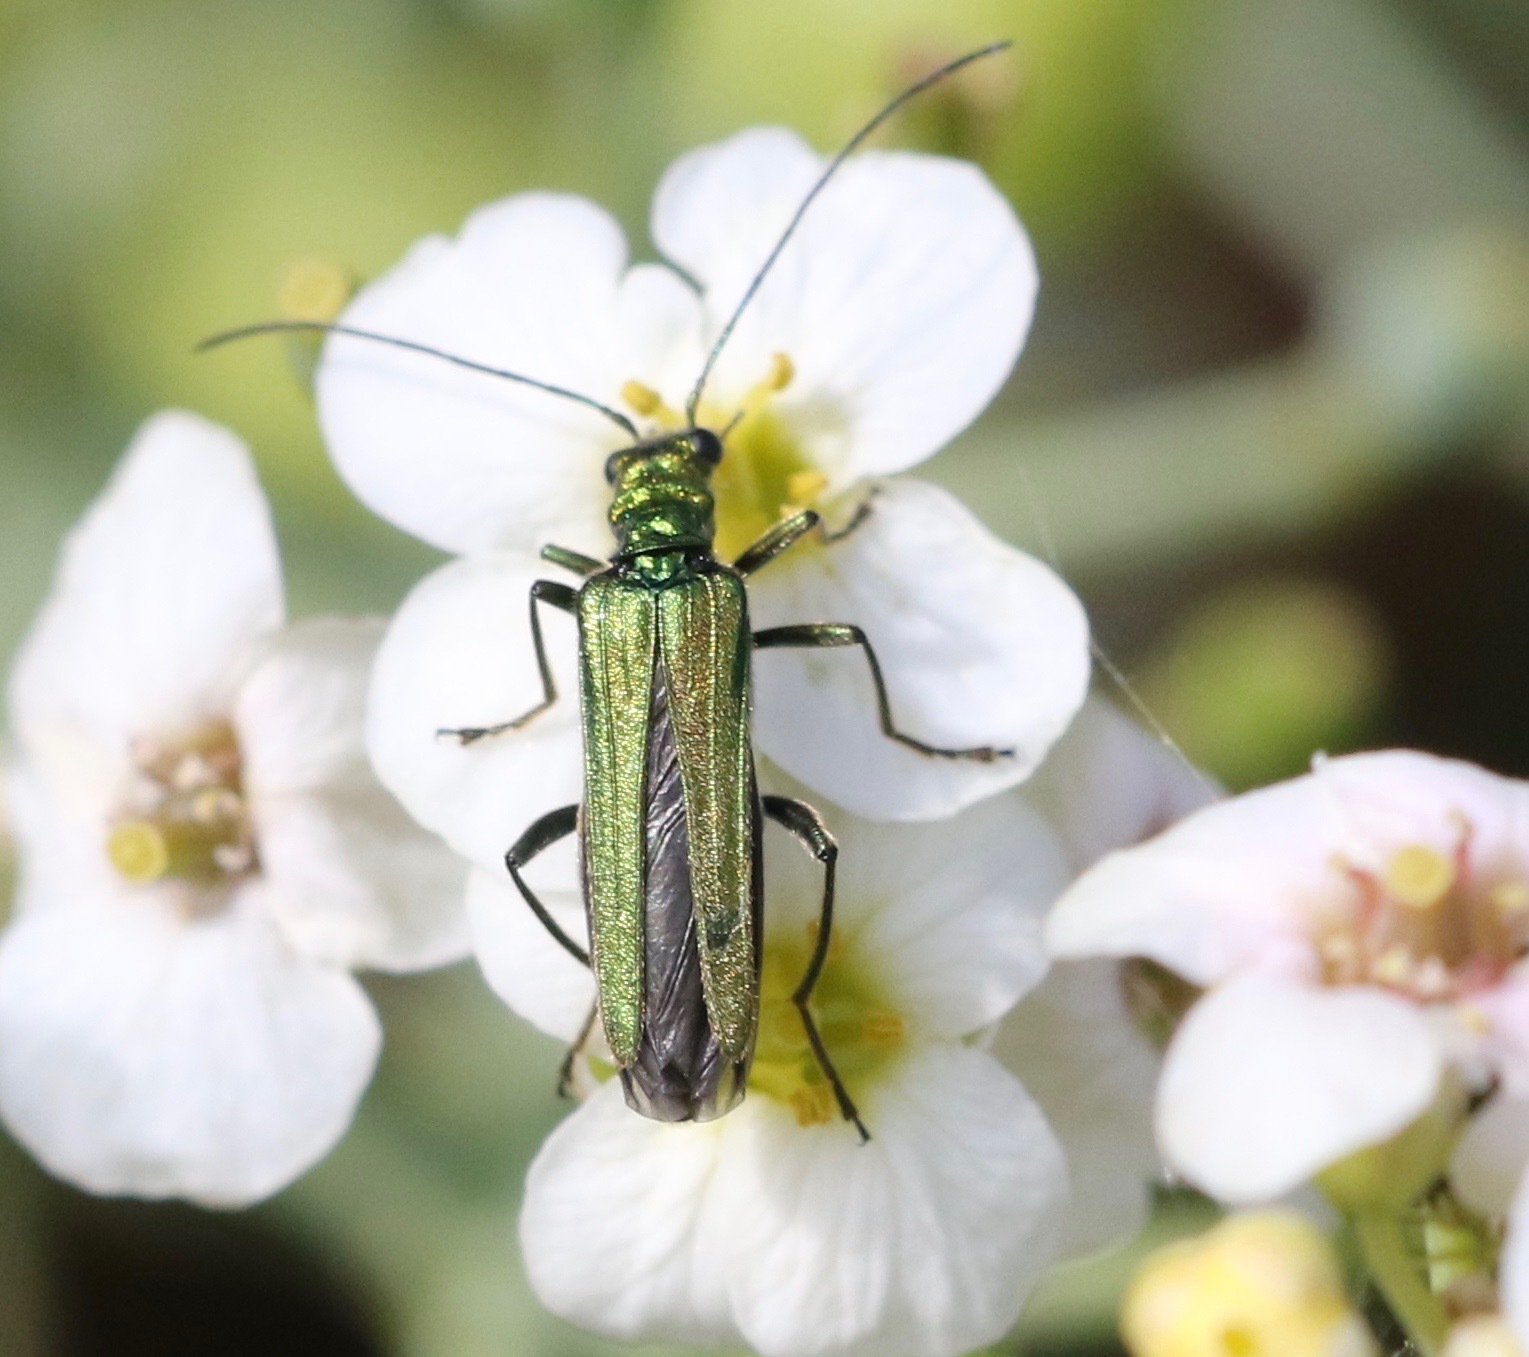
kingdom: Animalia
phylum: Arthropoda
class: Insecta
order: Coleoptera
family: Oedemeridae
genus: Oedemera
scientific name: Oedemera nobilis
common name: Swollen-thighed beetle
